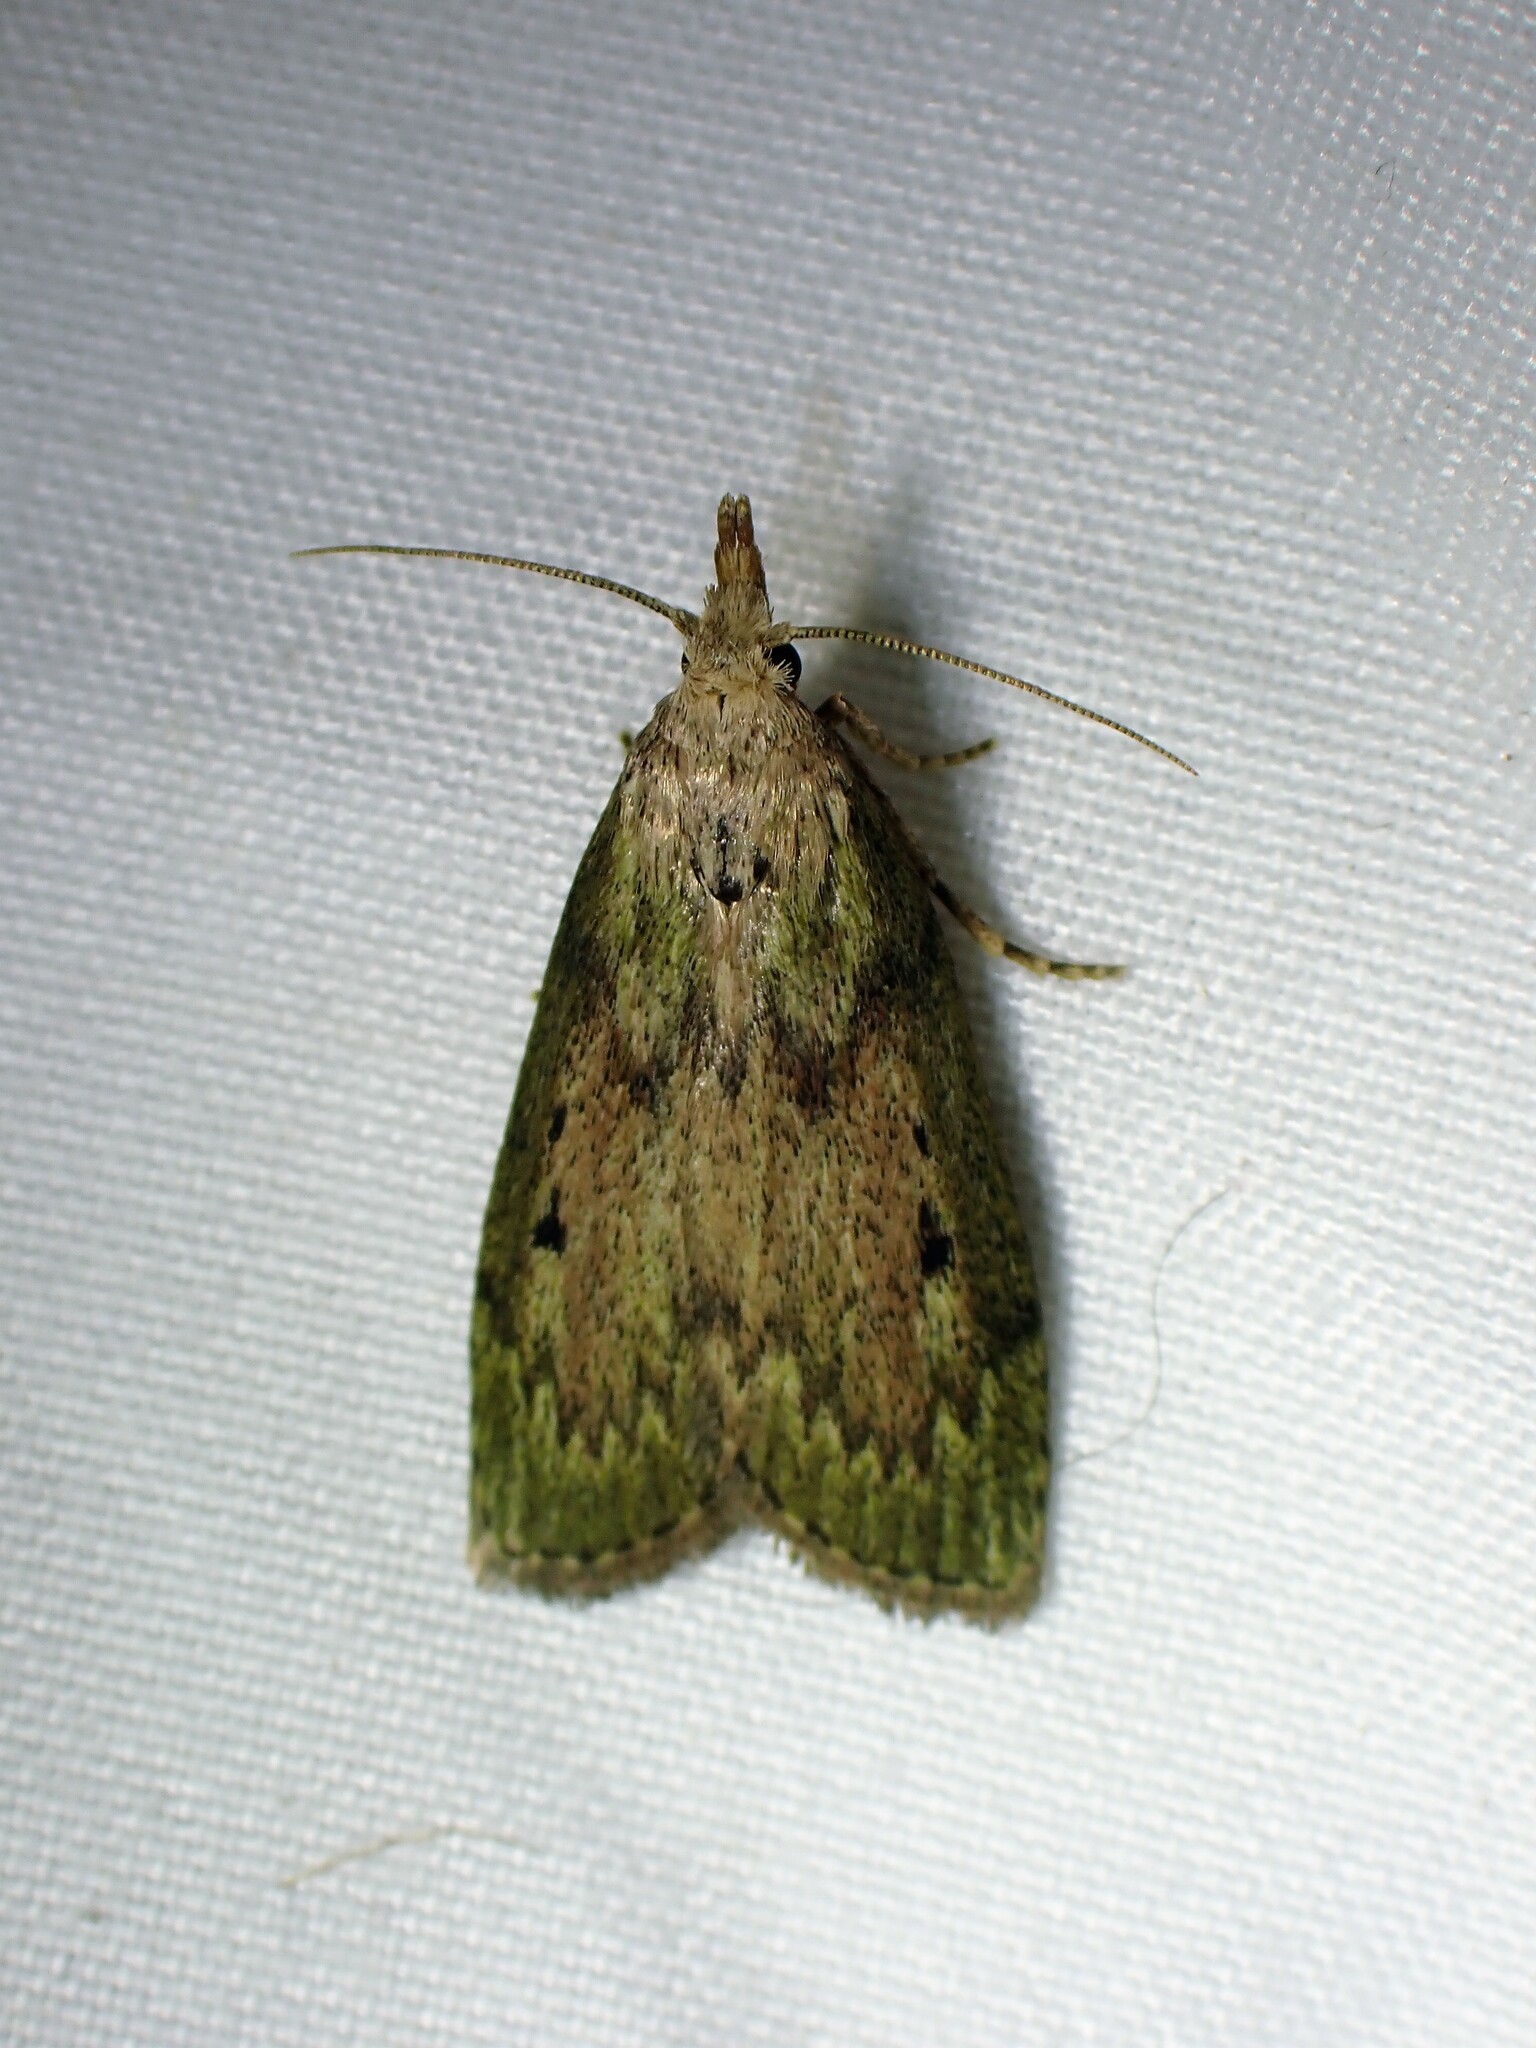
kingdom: Animalia
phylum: Arthropoda
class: Insecta
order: Lepidoptera
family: Pyralidae
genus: Aphomia
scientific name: Aphomia sociella
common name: Bee moth
